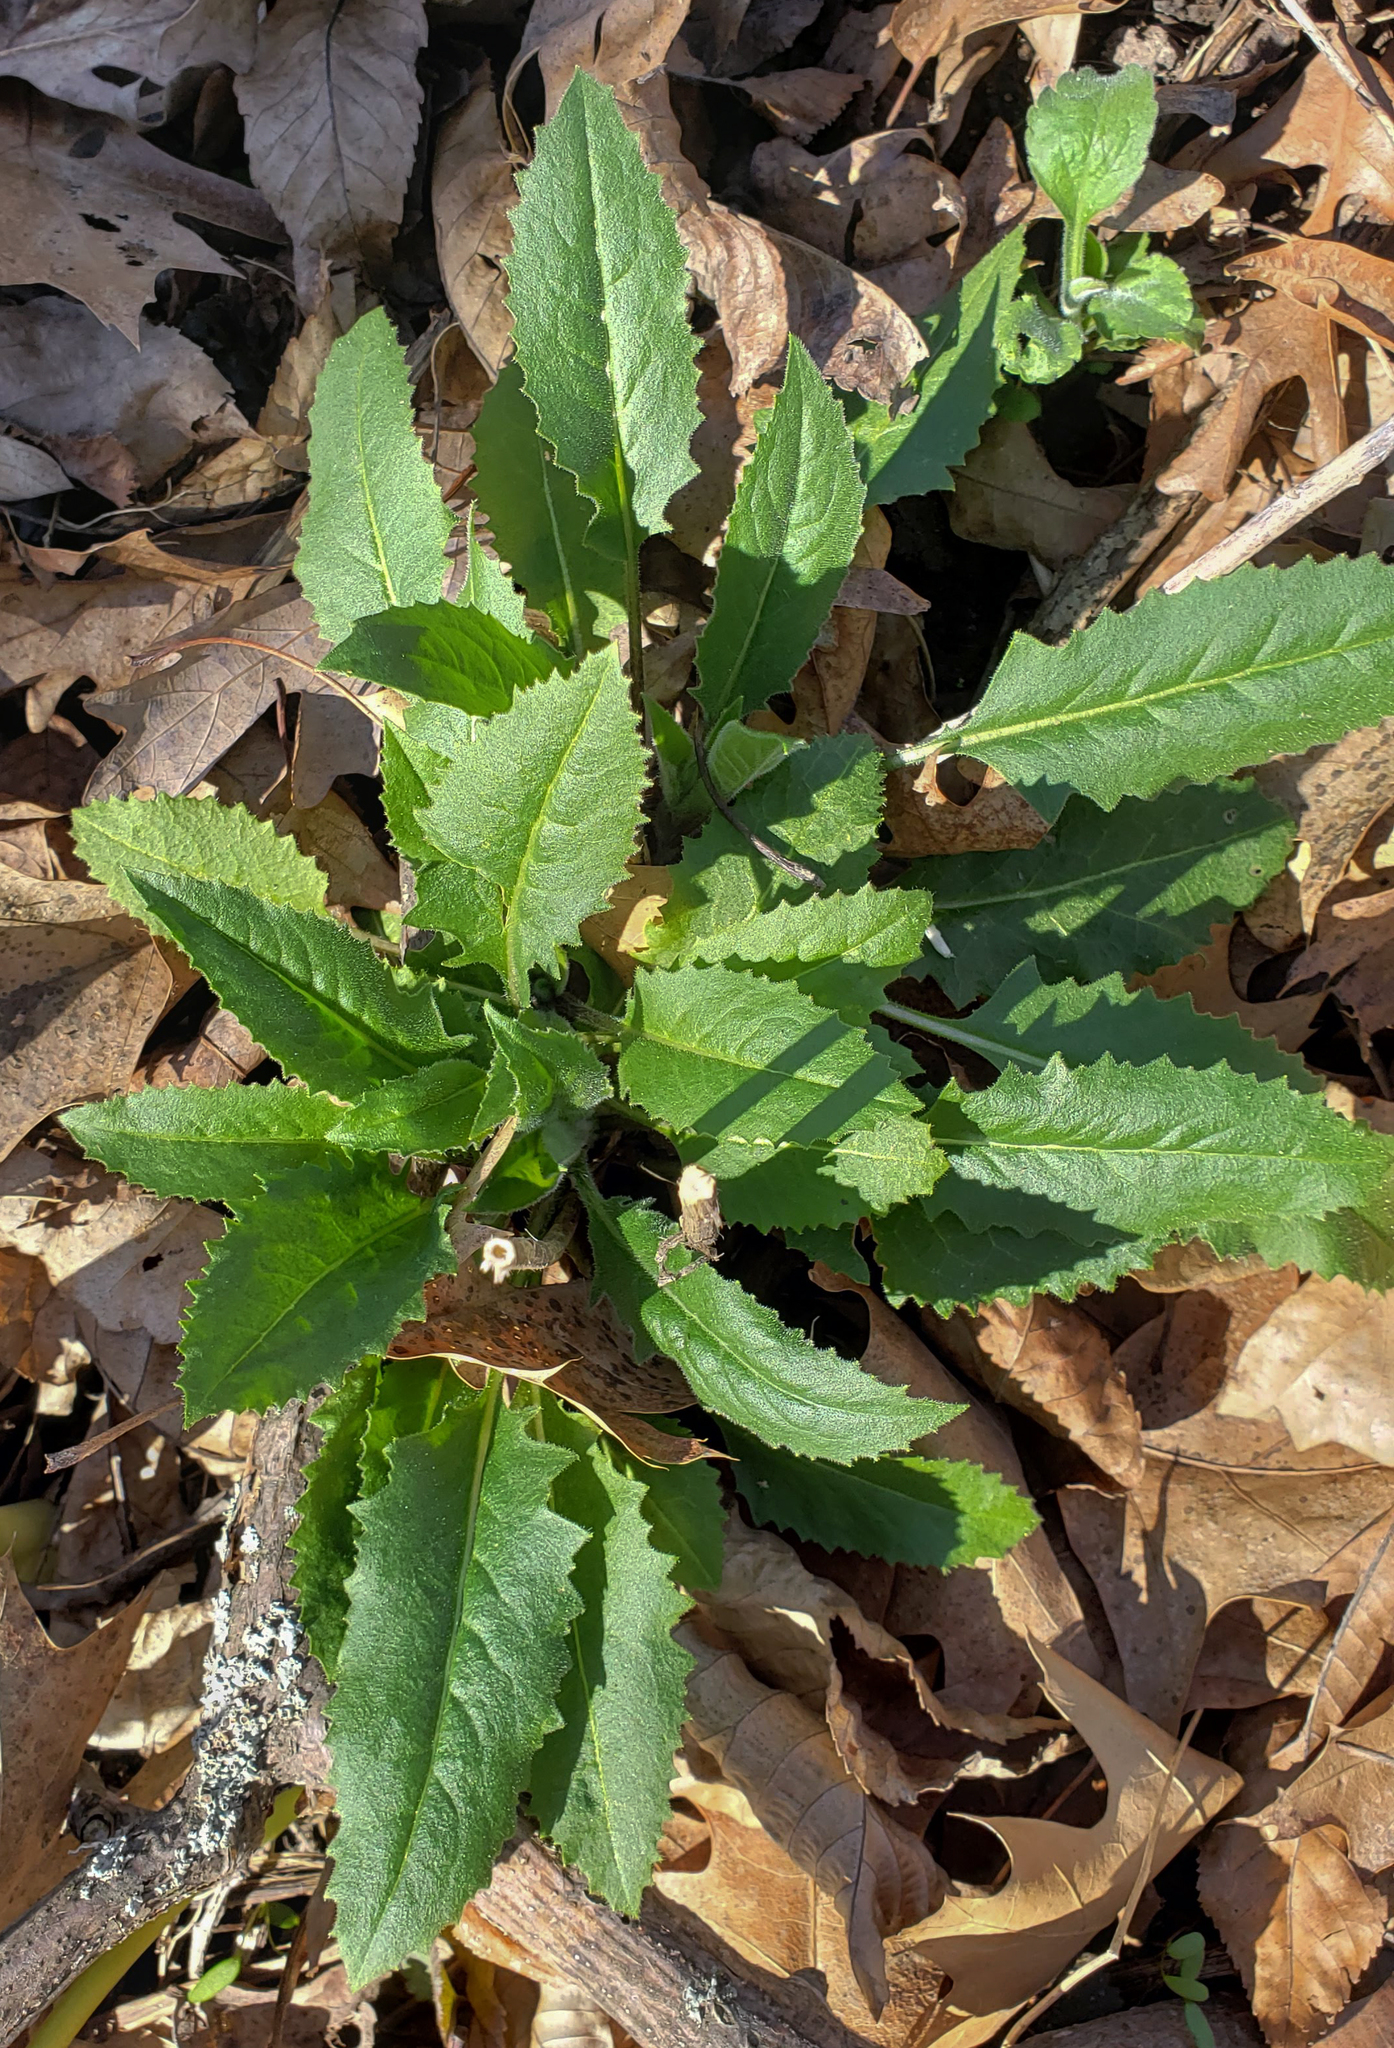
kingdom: Plantae
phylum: Tracheophyta
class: Magnoliopsida
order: Brassicales
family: Brassicaceae
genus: Hesperis
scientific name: Hesperis matronalis
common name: Dame's-violet
